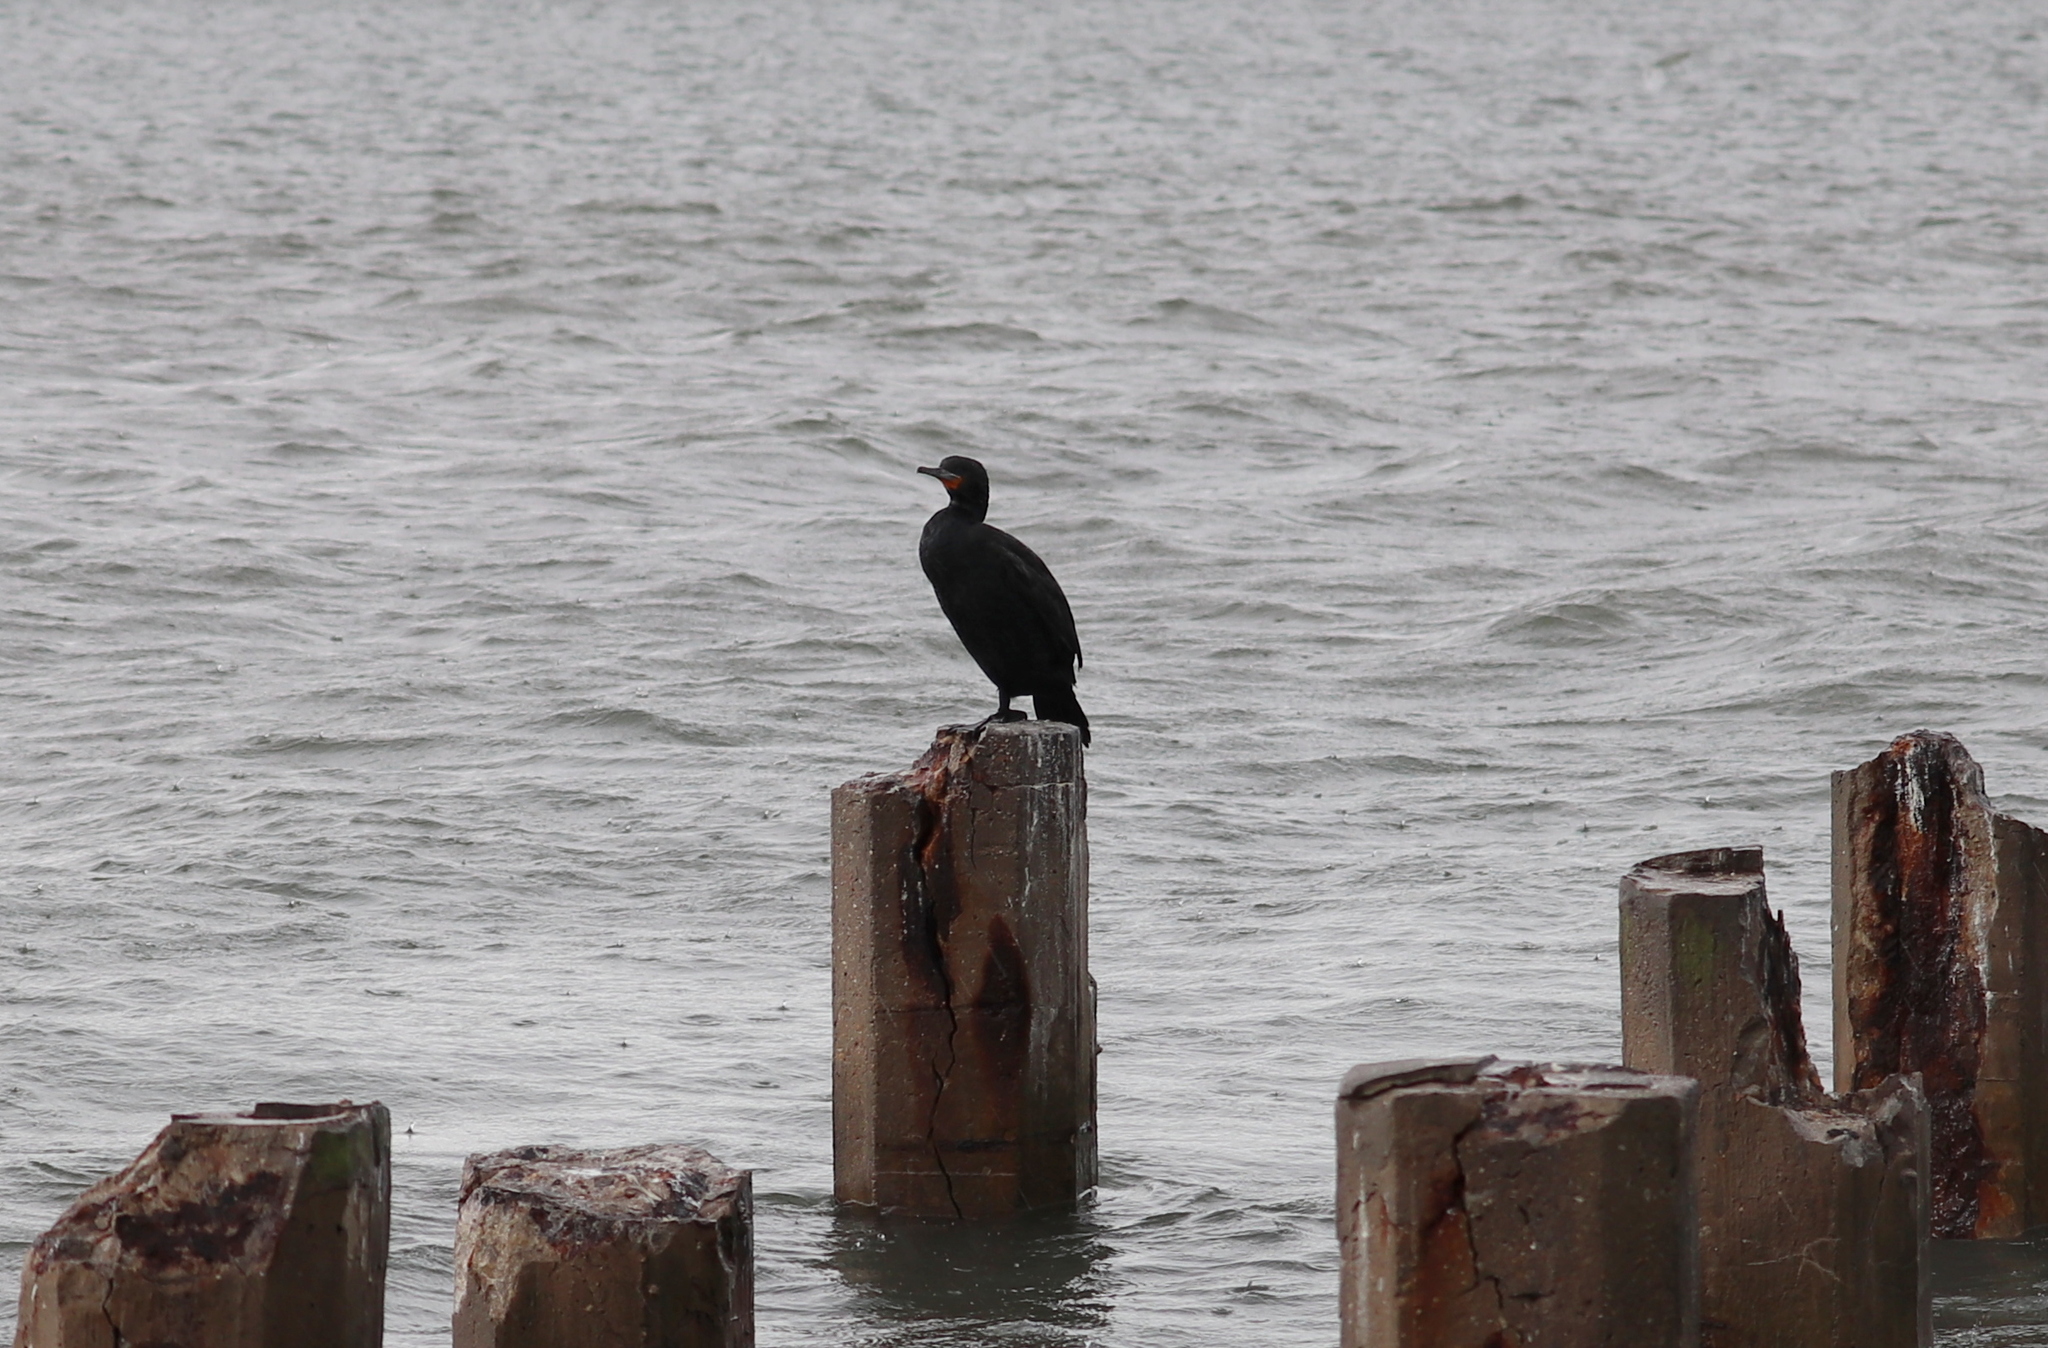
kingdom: Animalia
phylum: Chordata
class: Aves
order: Suliformes
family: Phalacrocoracidae
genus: Phalacrocorax
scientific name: Phalacrocorax capensis
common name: Cape cormorant
